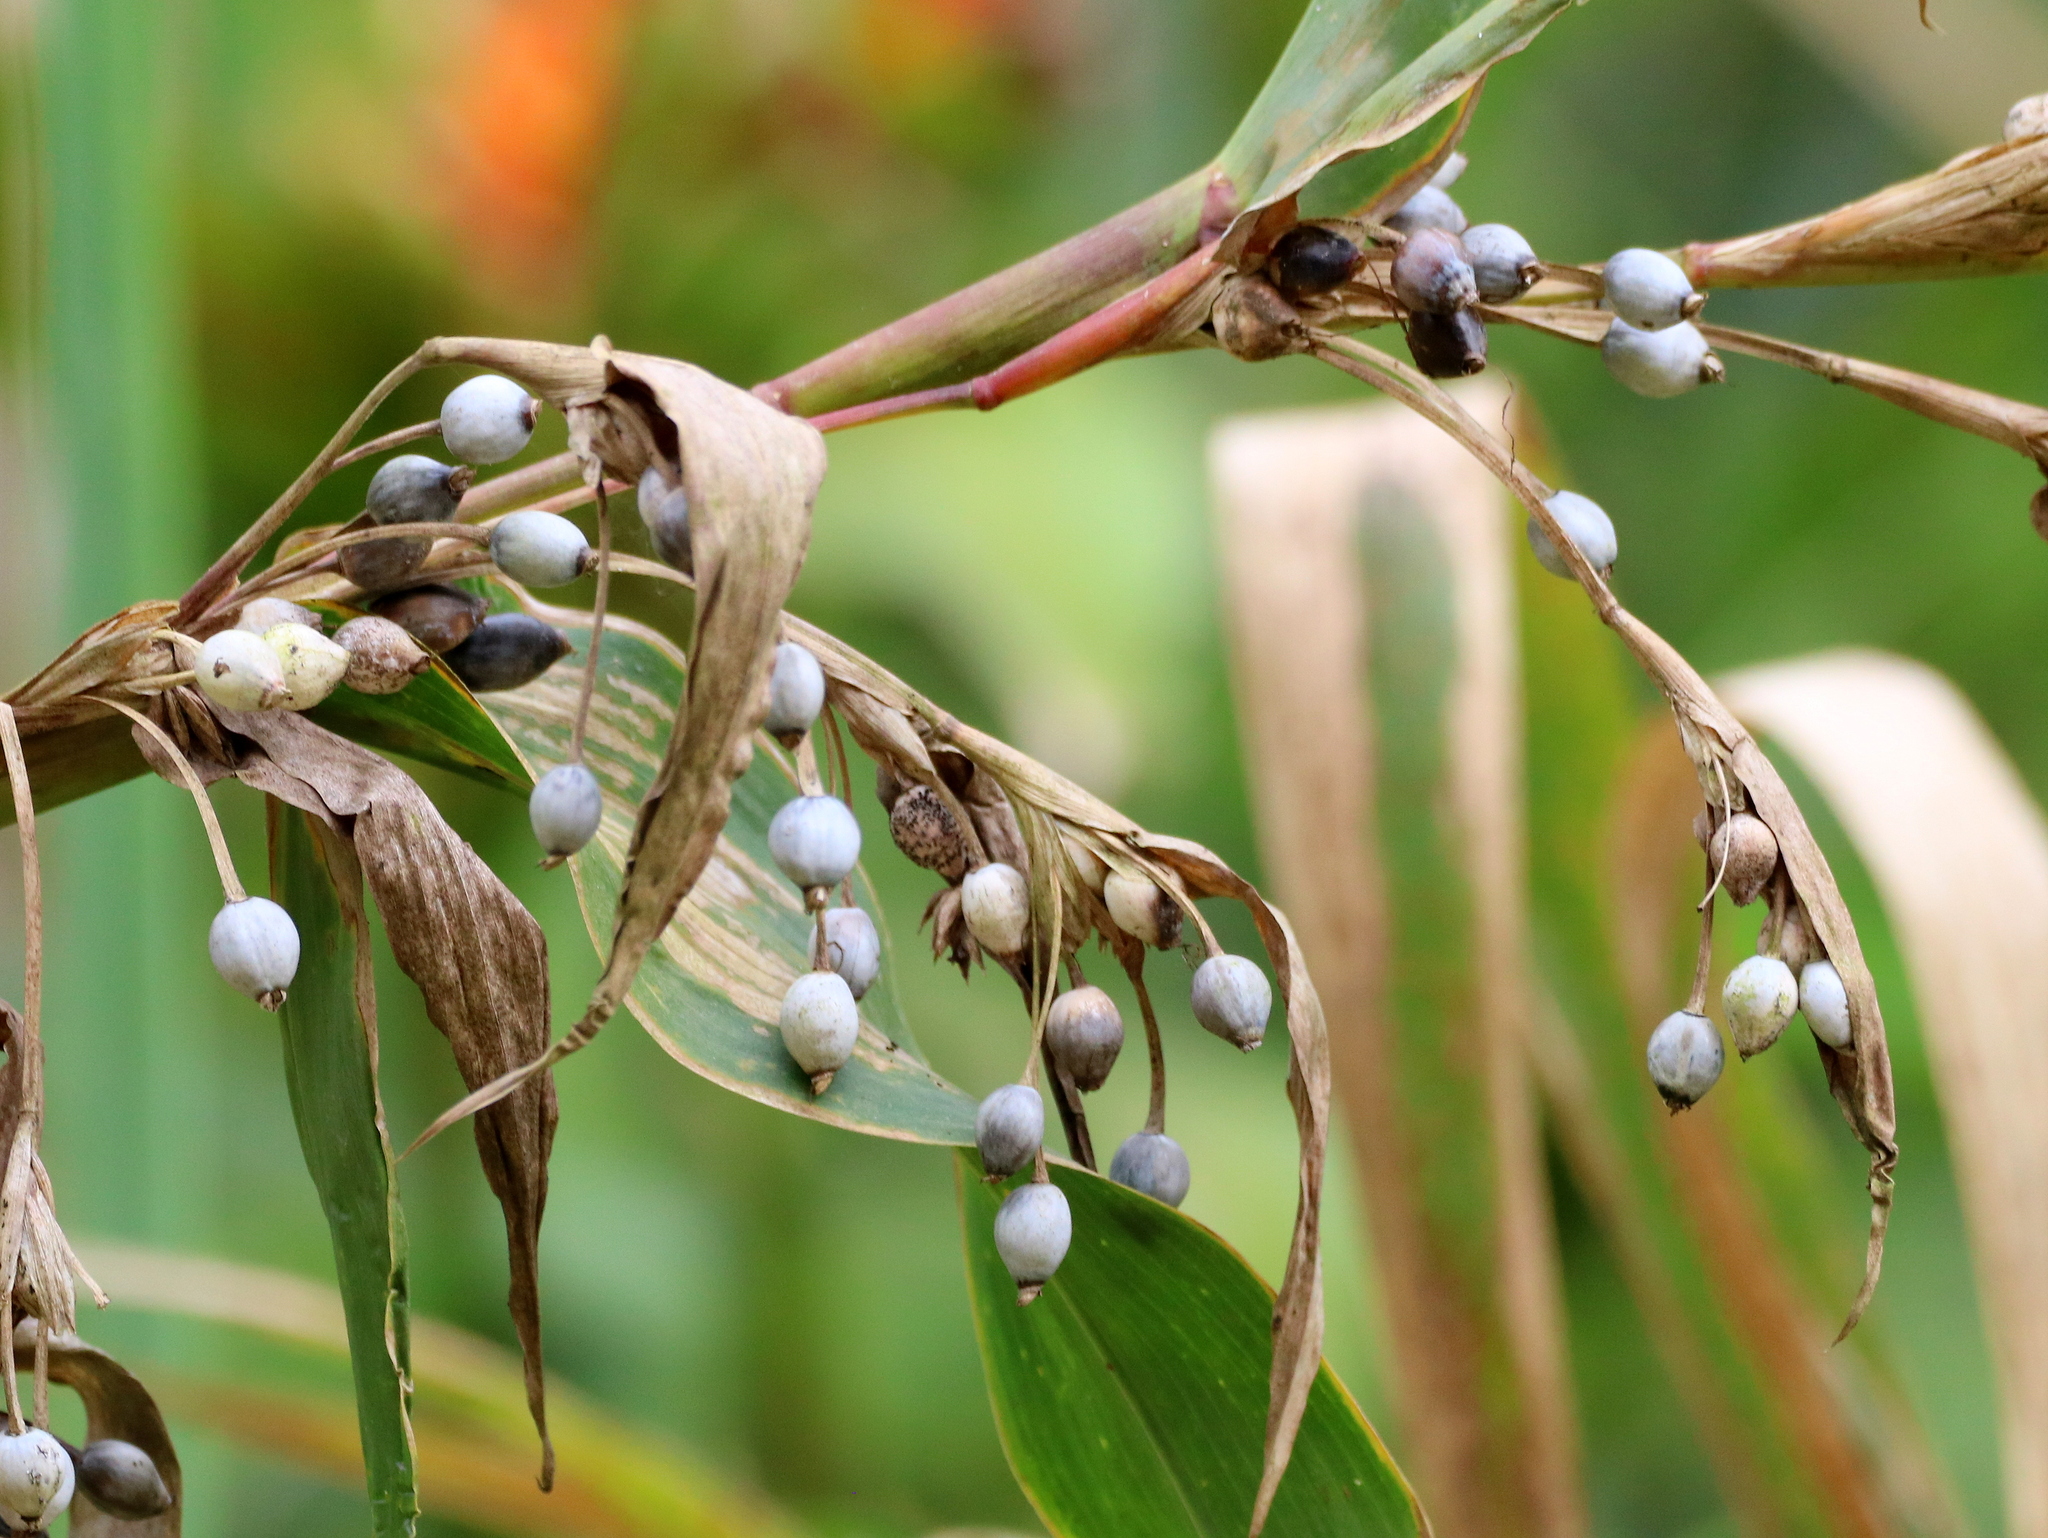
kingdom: Plantae
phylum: Tracheophyta
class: Liliopsida
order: Poales
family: Poaceae
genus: Coix
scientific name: Coix lacryma-jobi
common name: Job's tears
